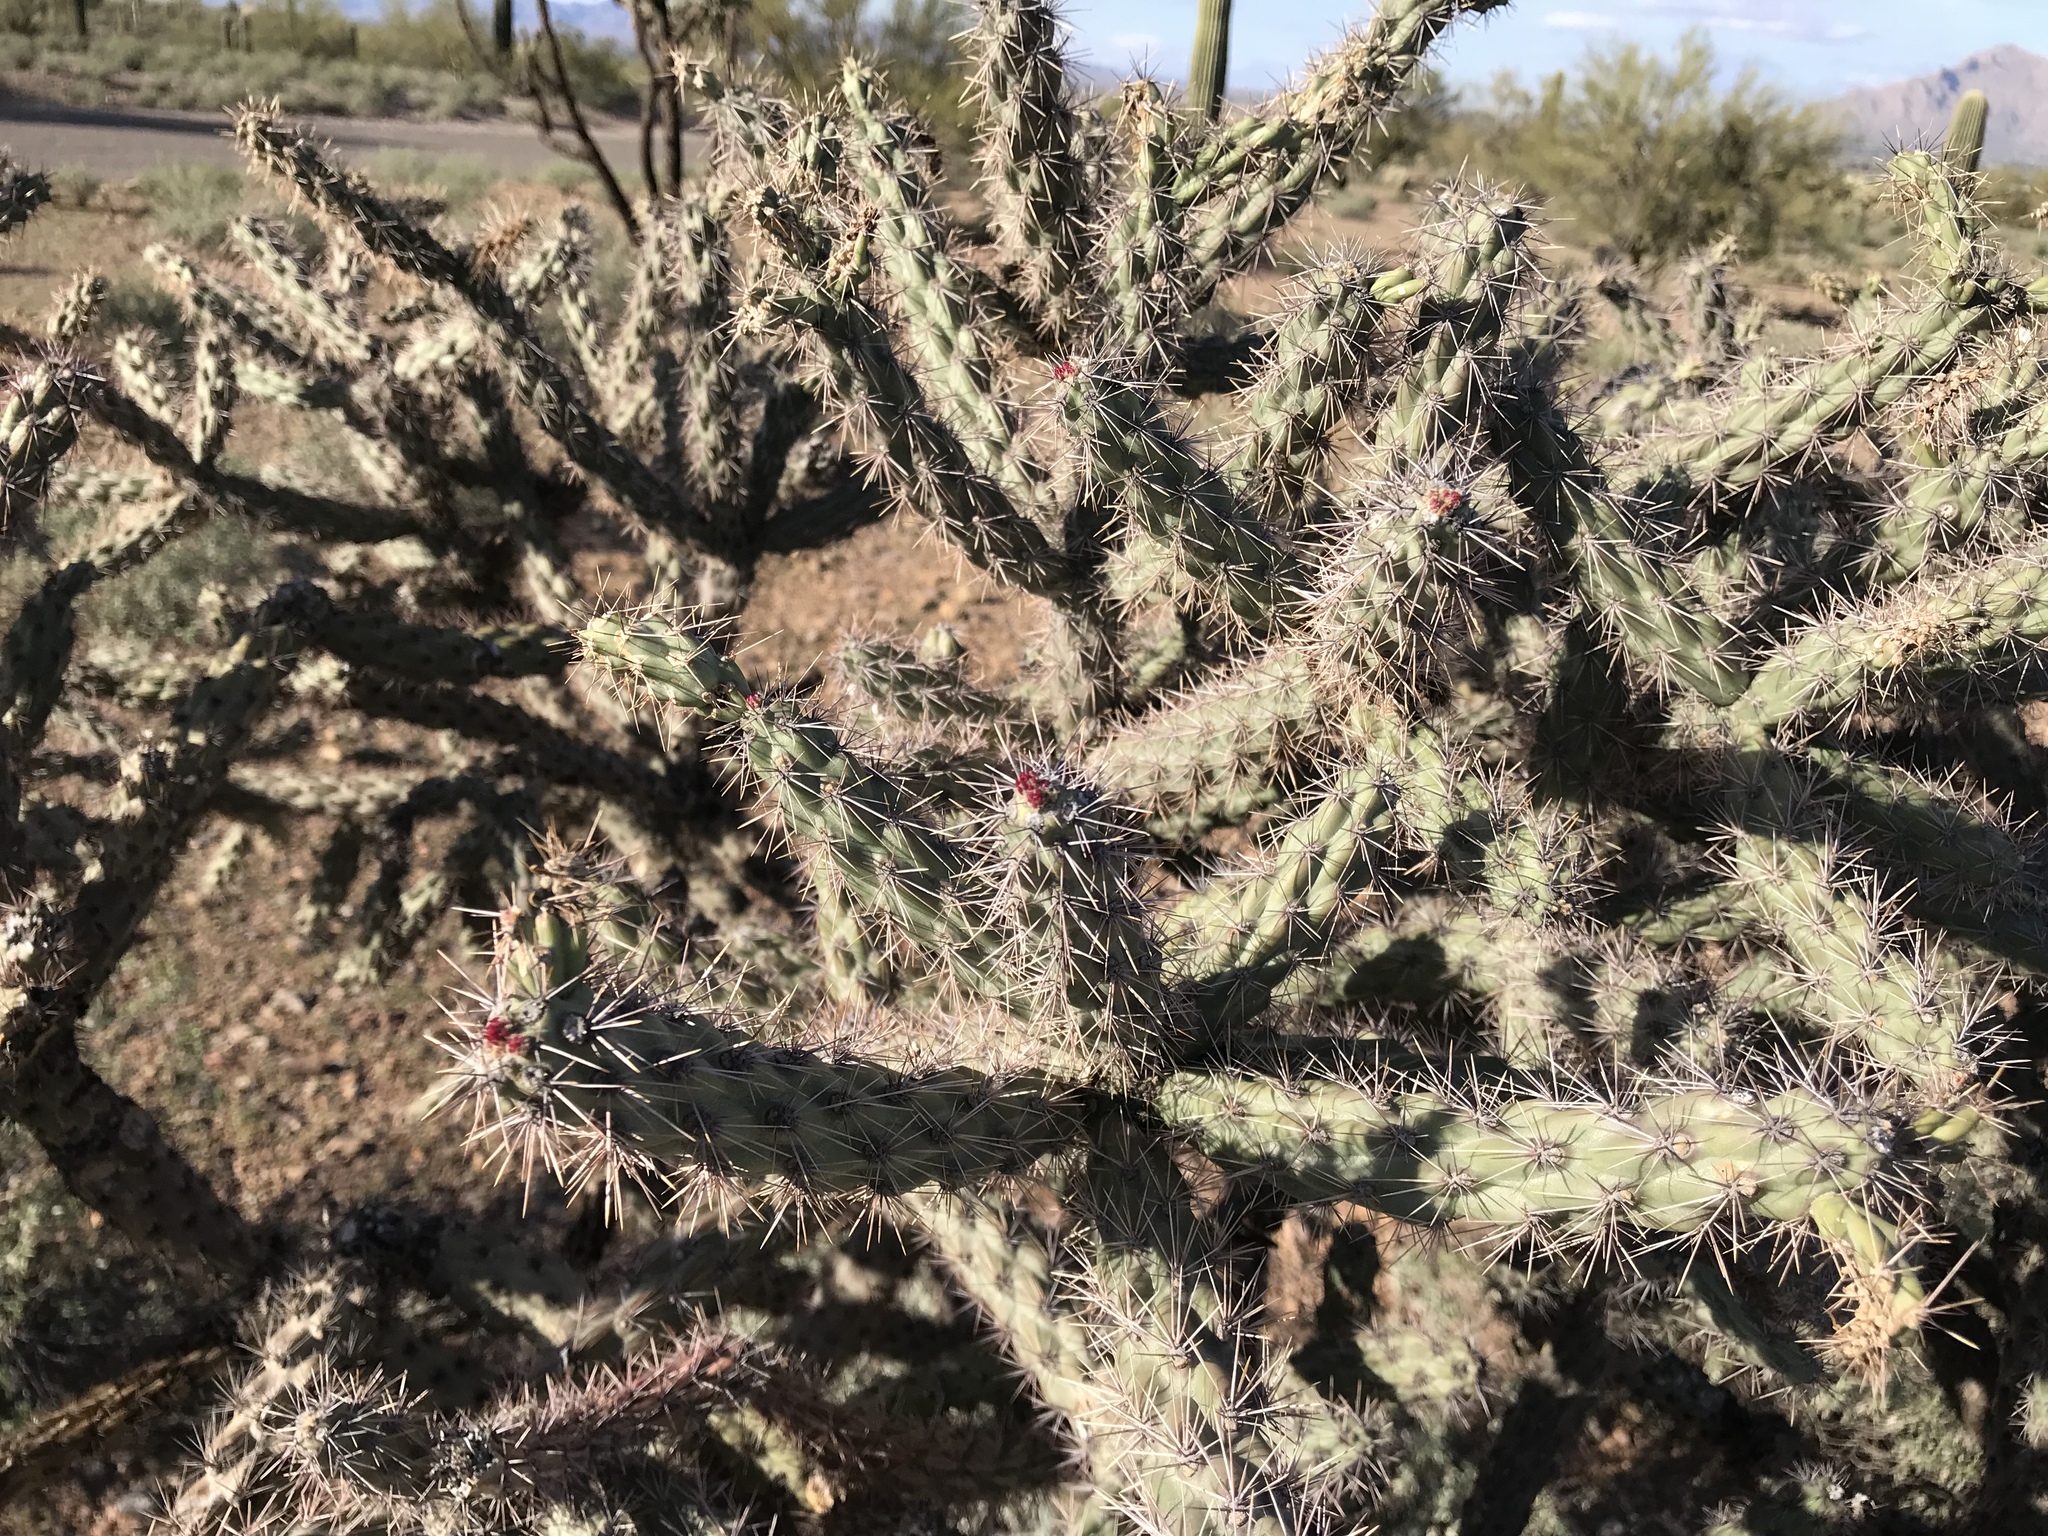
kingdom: Plantae
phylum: Tracheophyta
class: Magnoliopsida
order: Caryophyllales
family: Cactaceae
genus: Cylindropuntia
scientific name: Cylindropuntia acanthocarpa
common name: Buckhorn cholla
